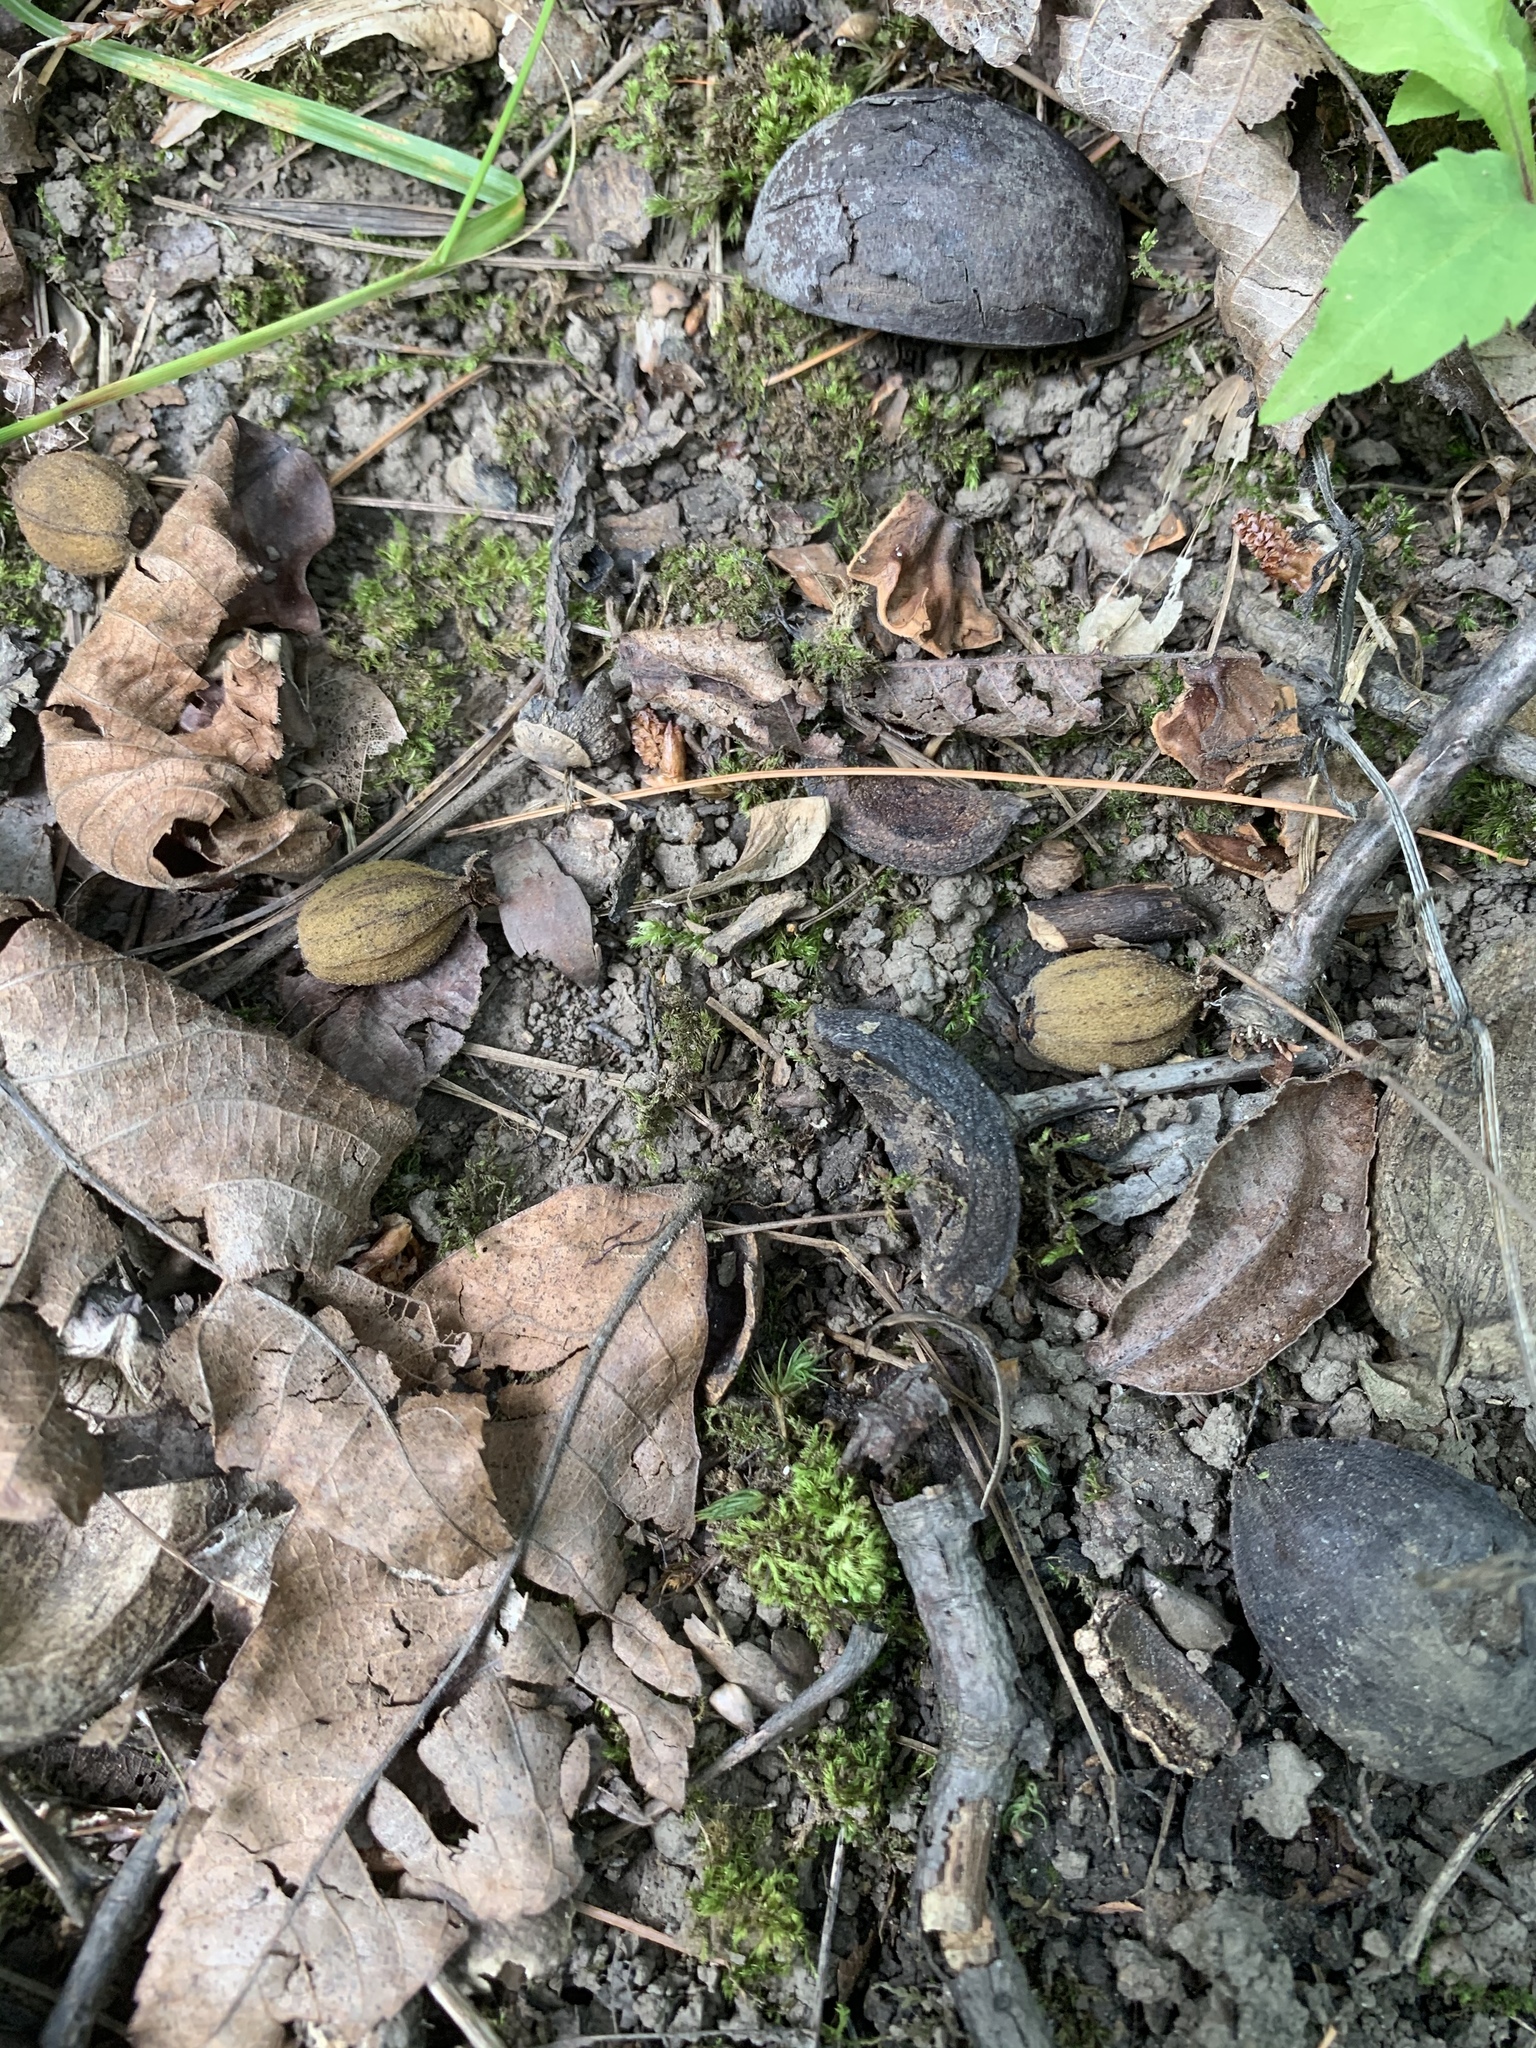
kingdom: Plantae
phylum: Tracheophyta
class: Magnoliopsida
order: Fagales
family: Juglandaceae
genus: Carya
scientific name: Carya ovata
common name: Shagbark hickory
